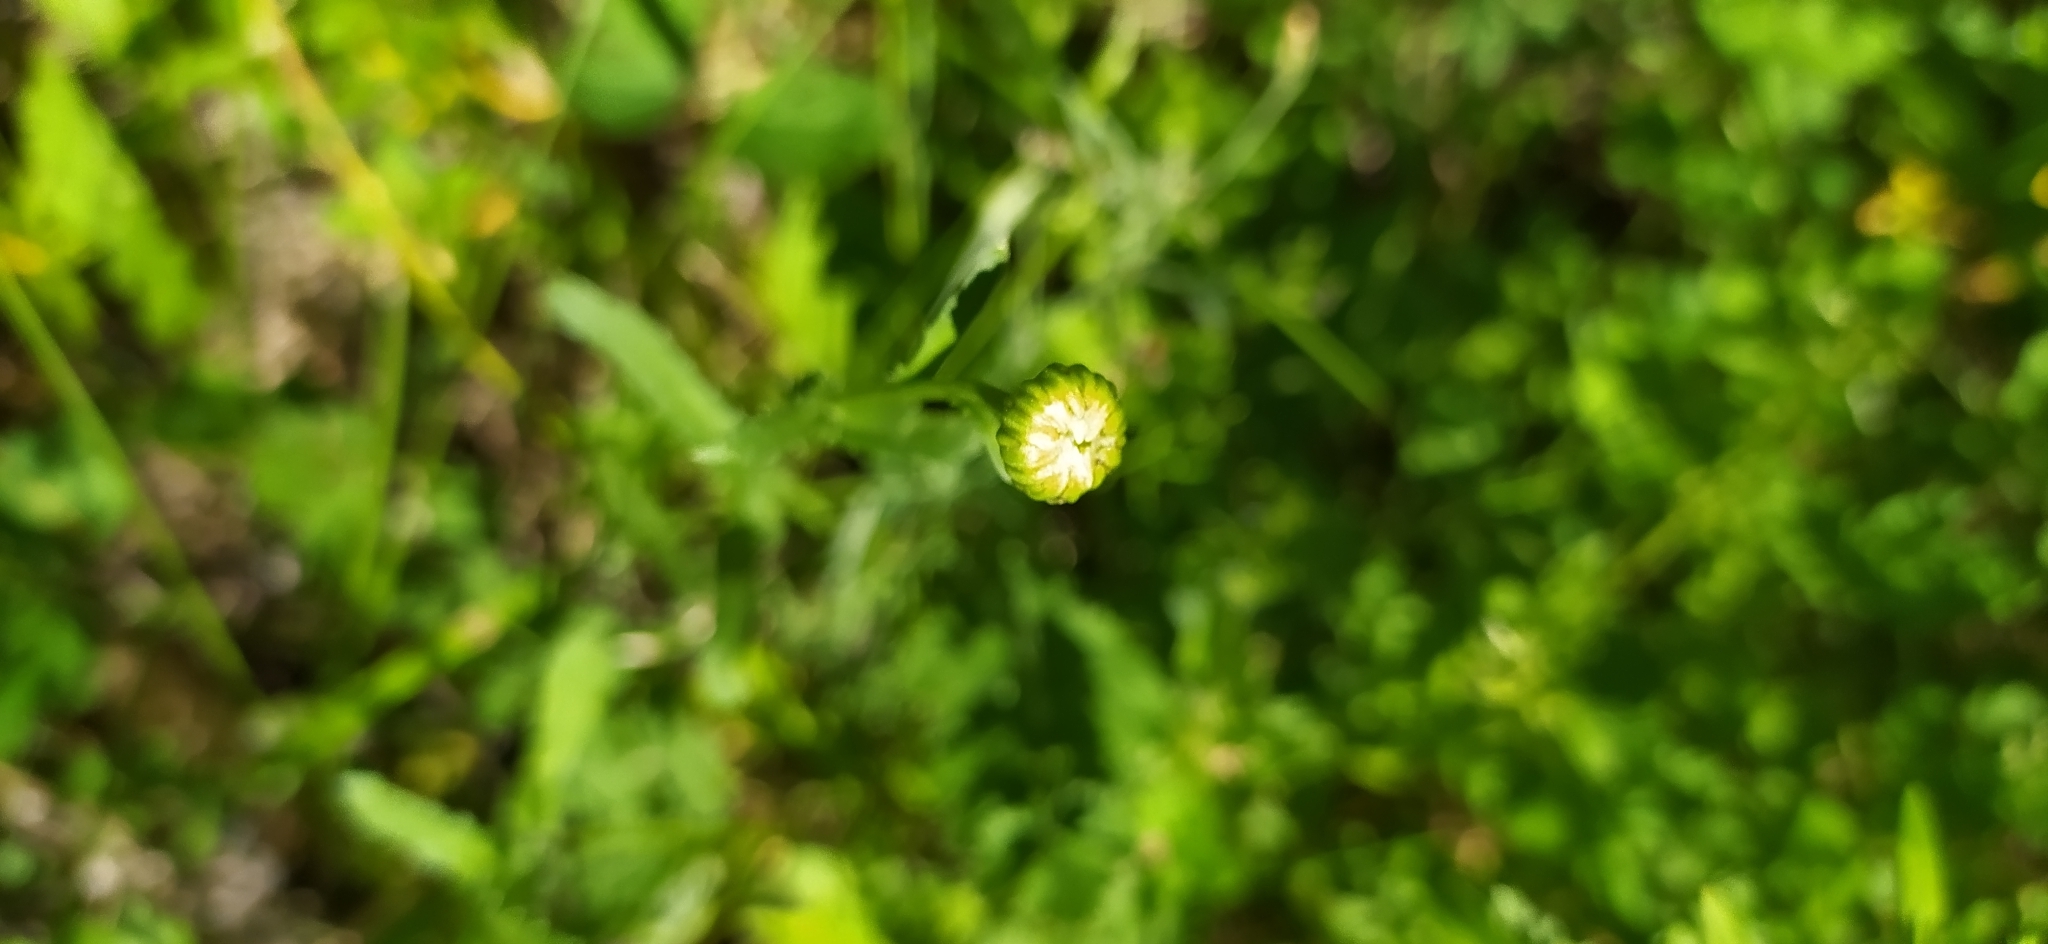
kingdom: Plantae
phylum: Tracheophyta
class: Magnoliopsida
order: Asterales
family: Asteraceae
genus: Leucanthemum
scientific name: Leucanthemum ircutianum
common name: Daisy
